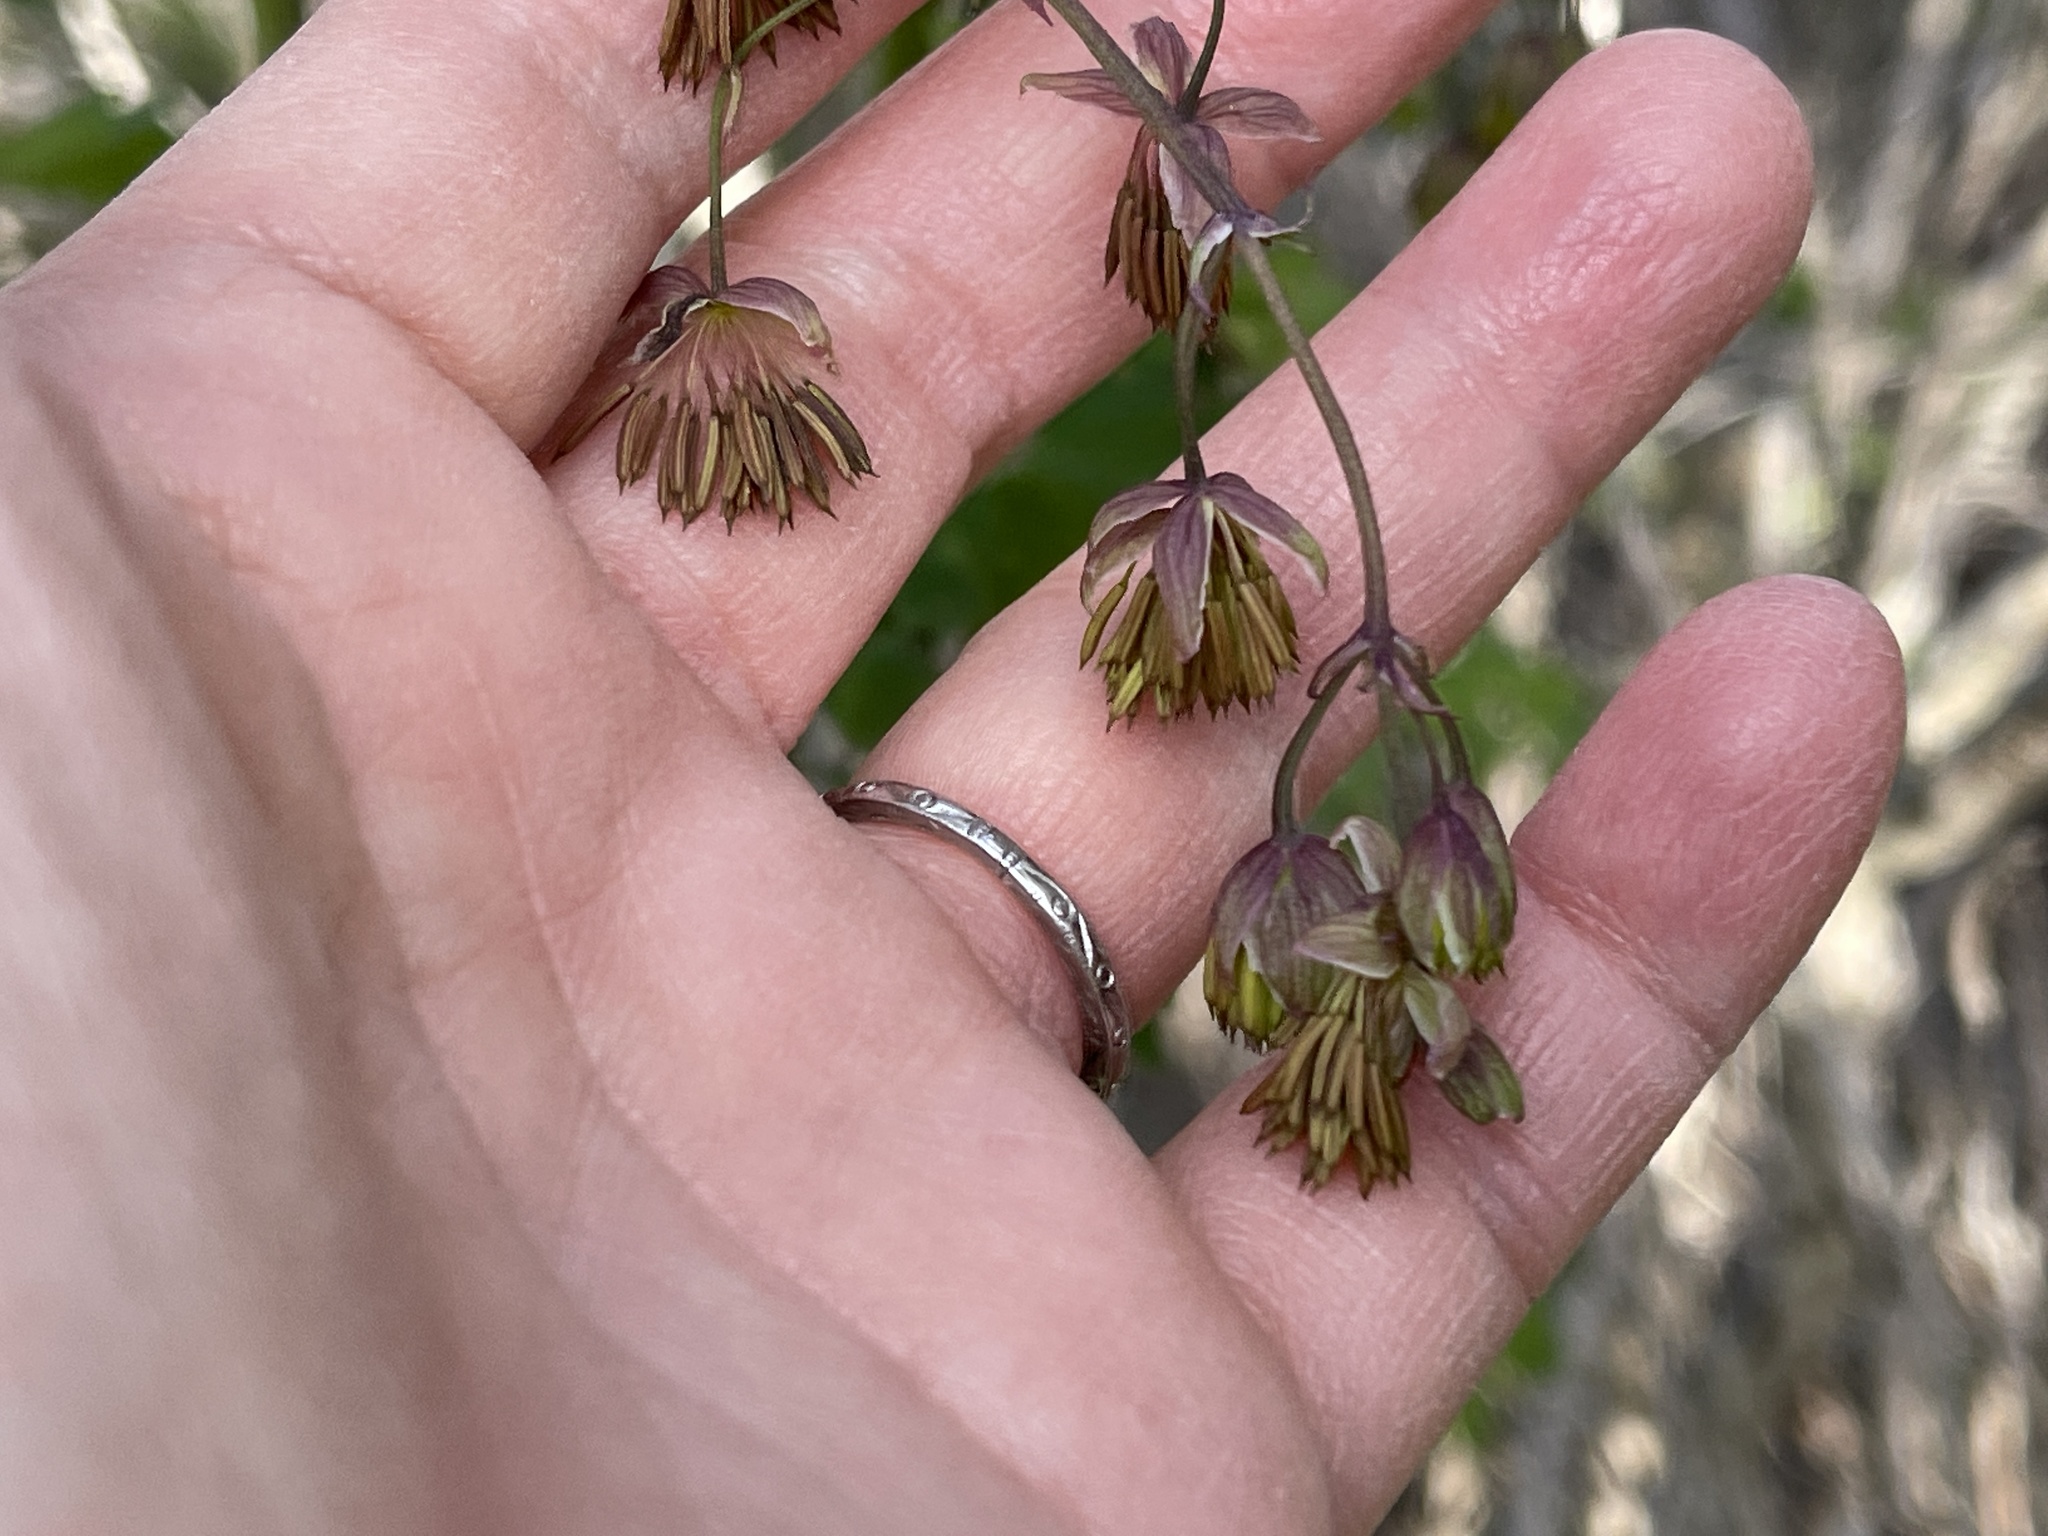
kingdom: Plantae
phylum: Tracheophyta
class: Magnoliopsida
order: Ranunculales
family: Ranunculaceae
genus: Thalictrum
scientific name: Thalictrum fendleri
